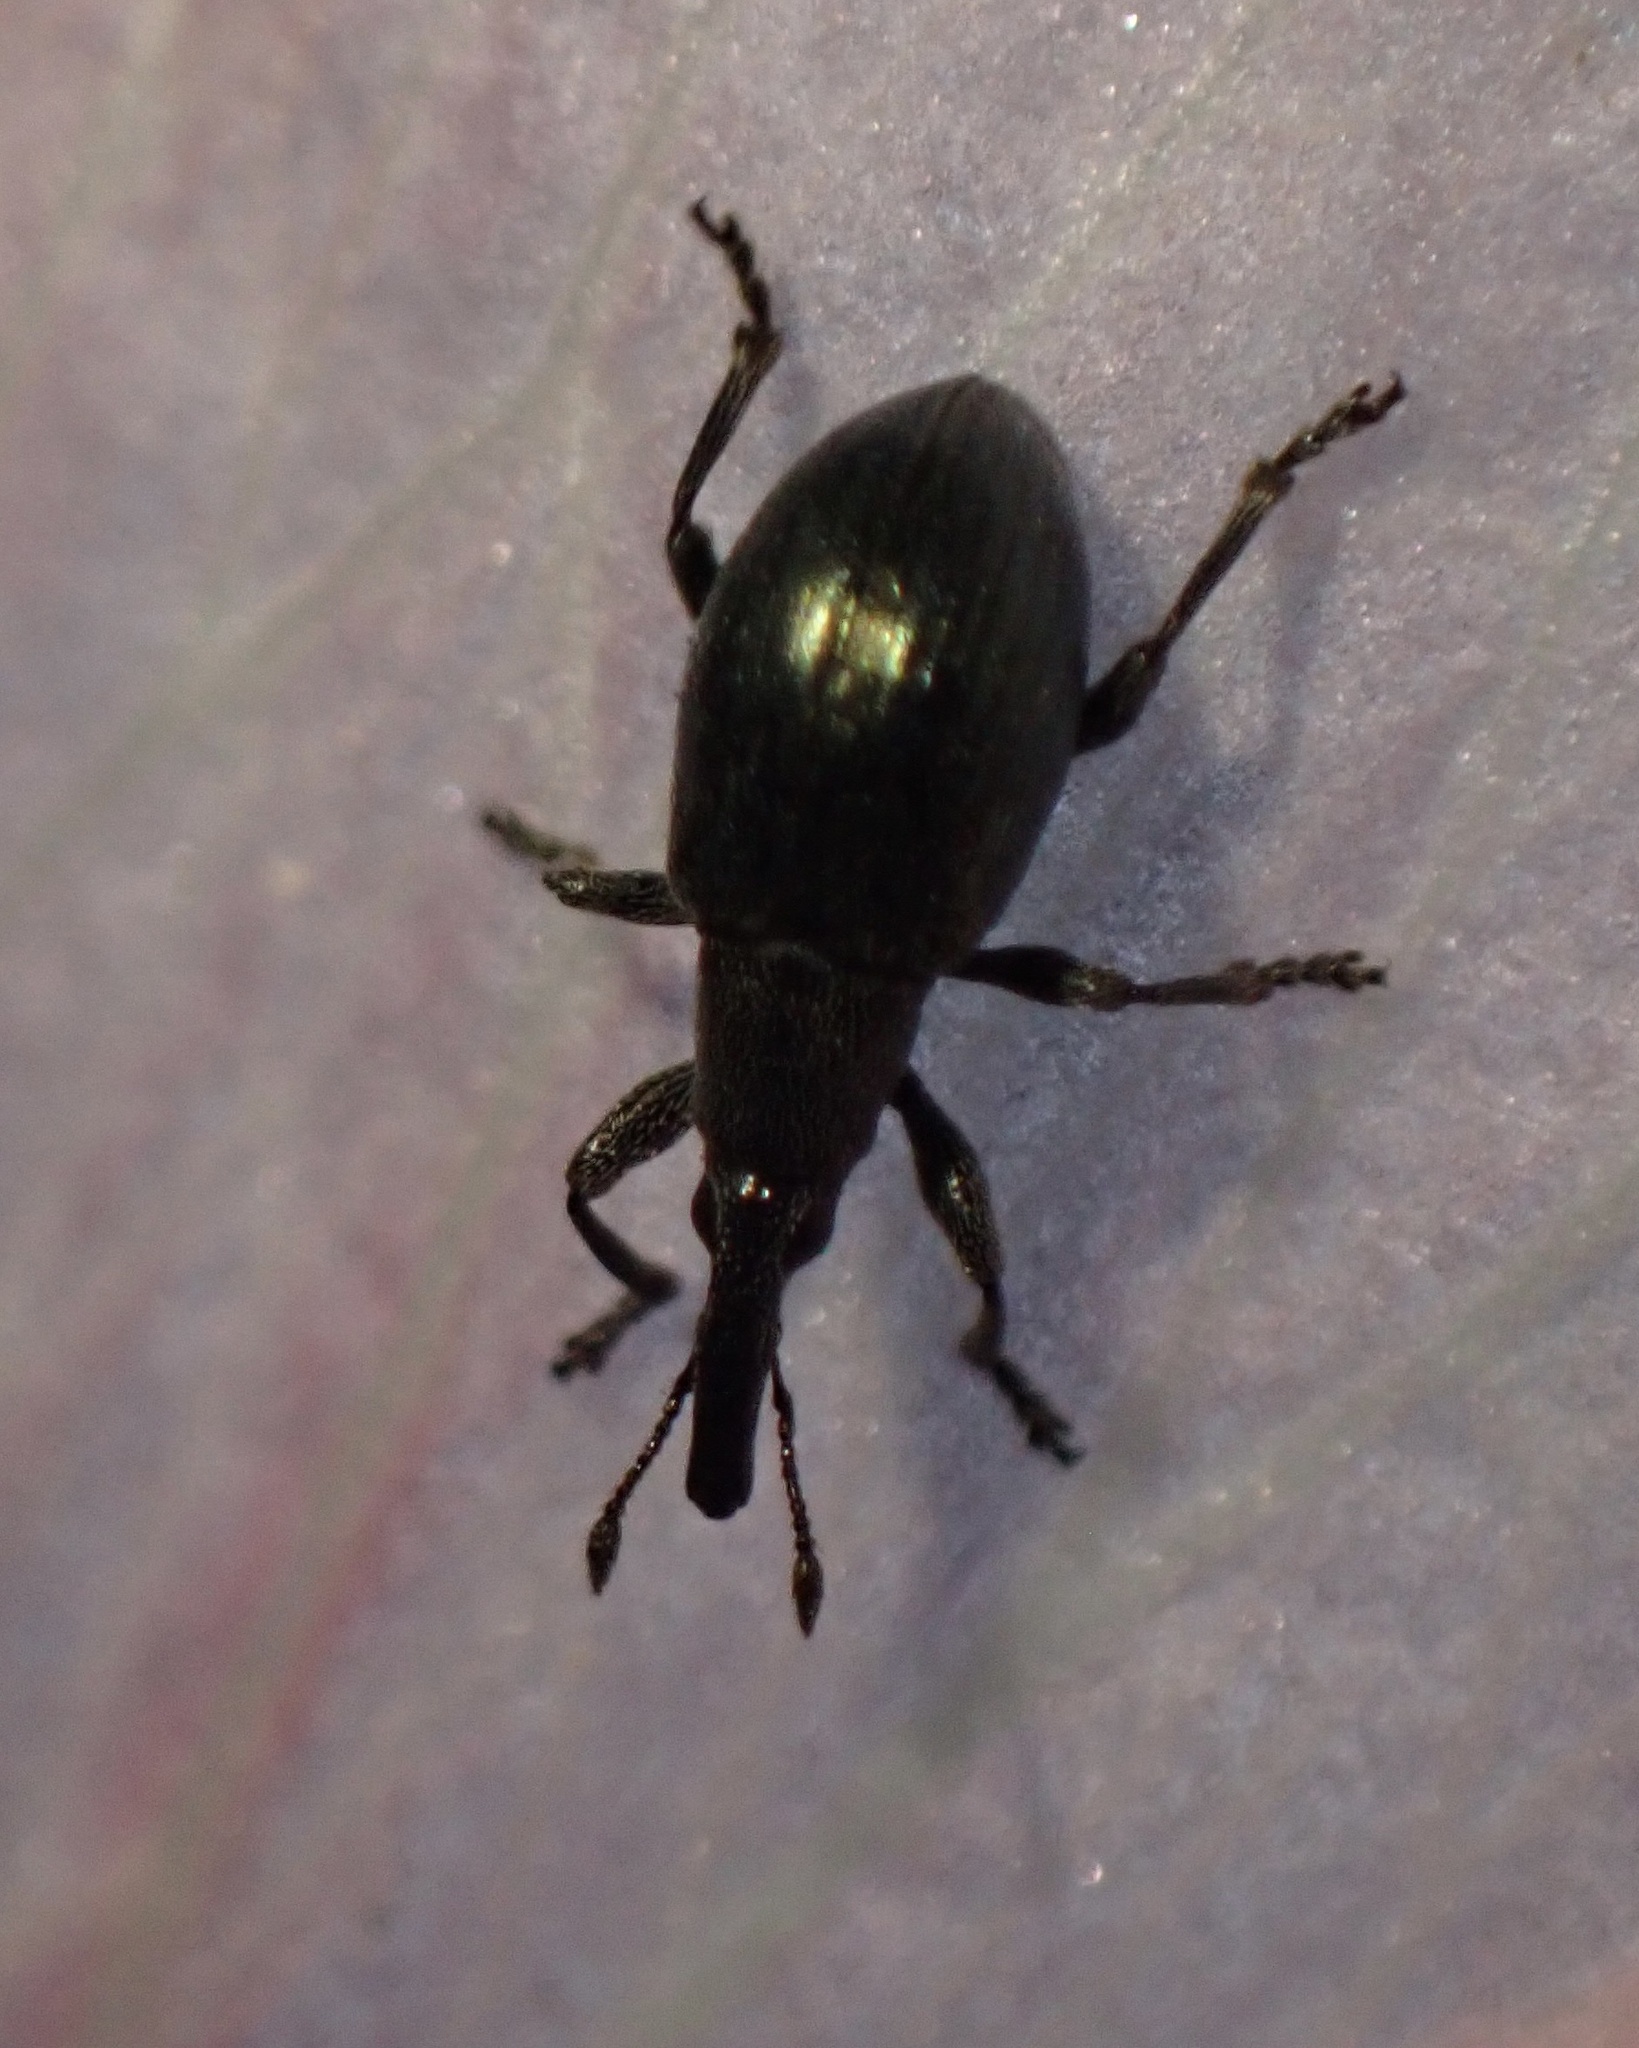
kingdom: Animalia
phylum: Arthropoda
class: Insecta
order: Coleoptera
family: Curculionidae
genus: Sphenomorpha
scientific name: Sphenomorpha aenea
